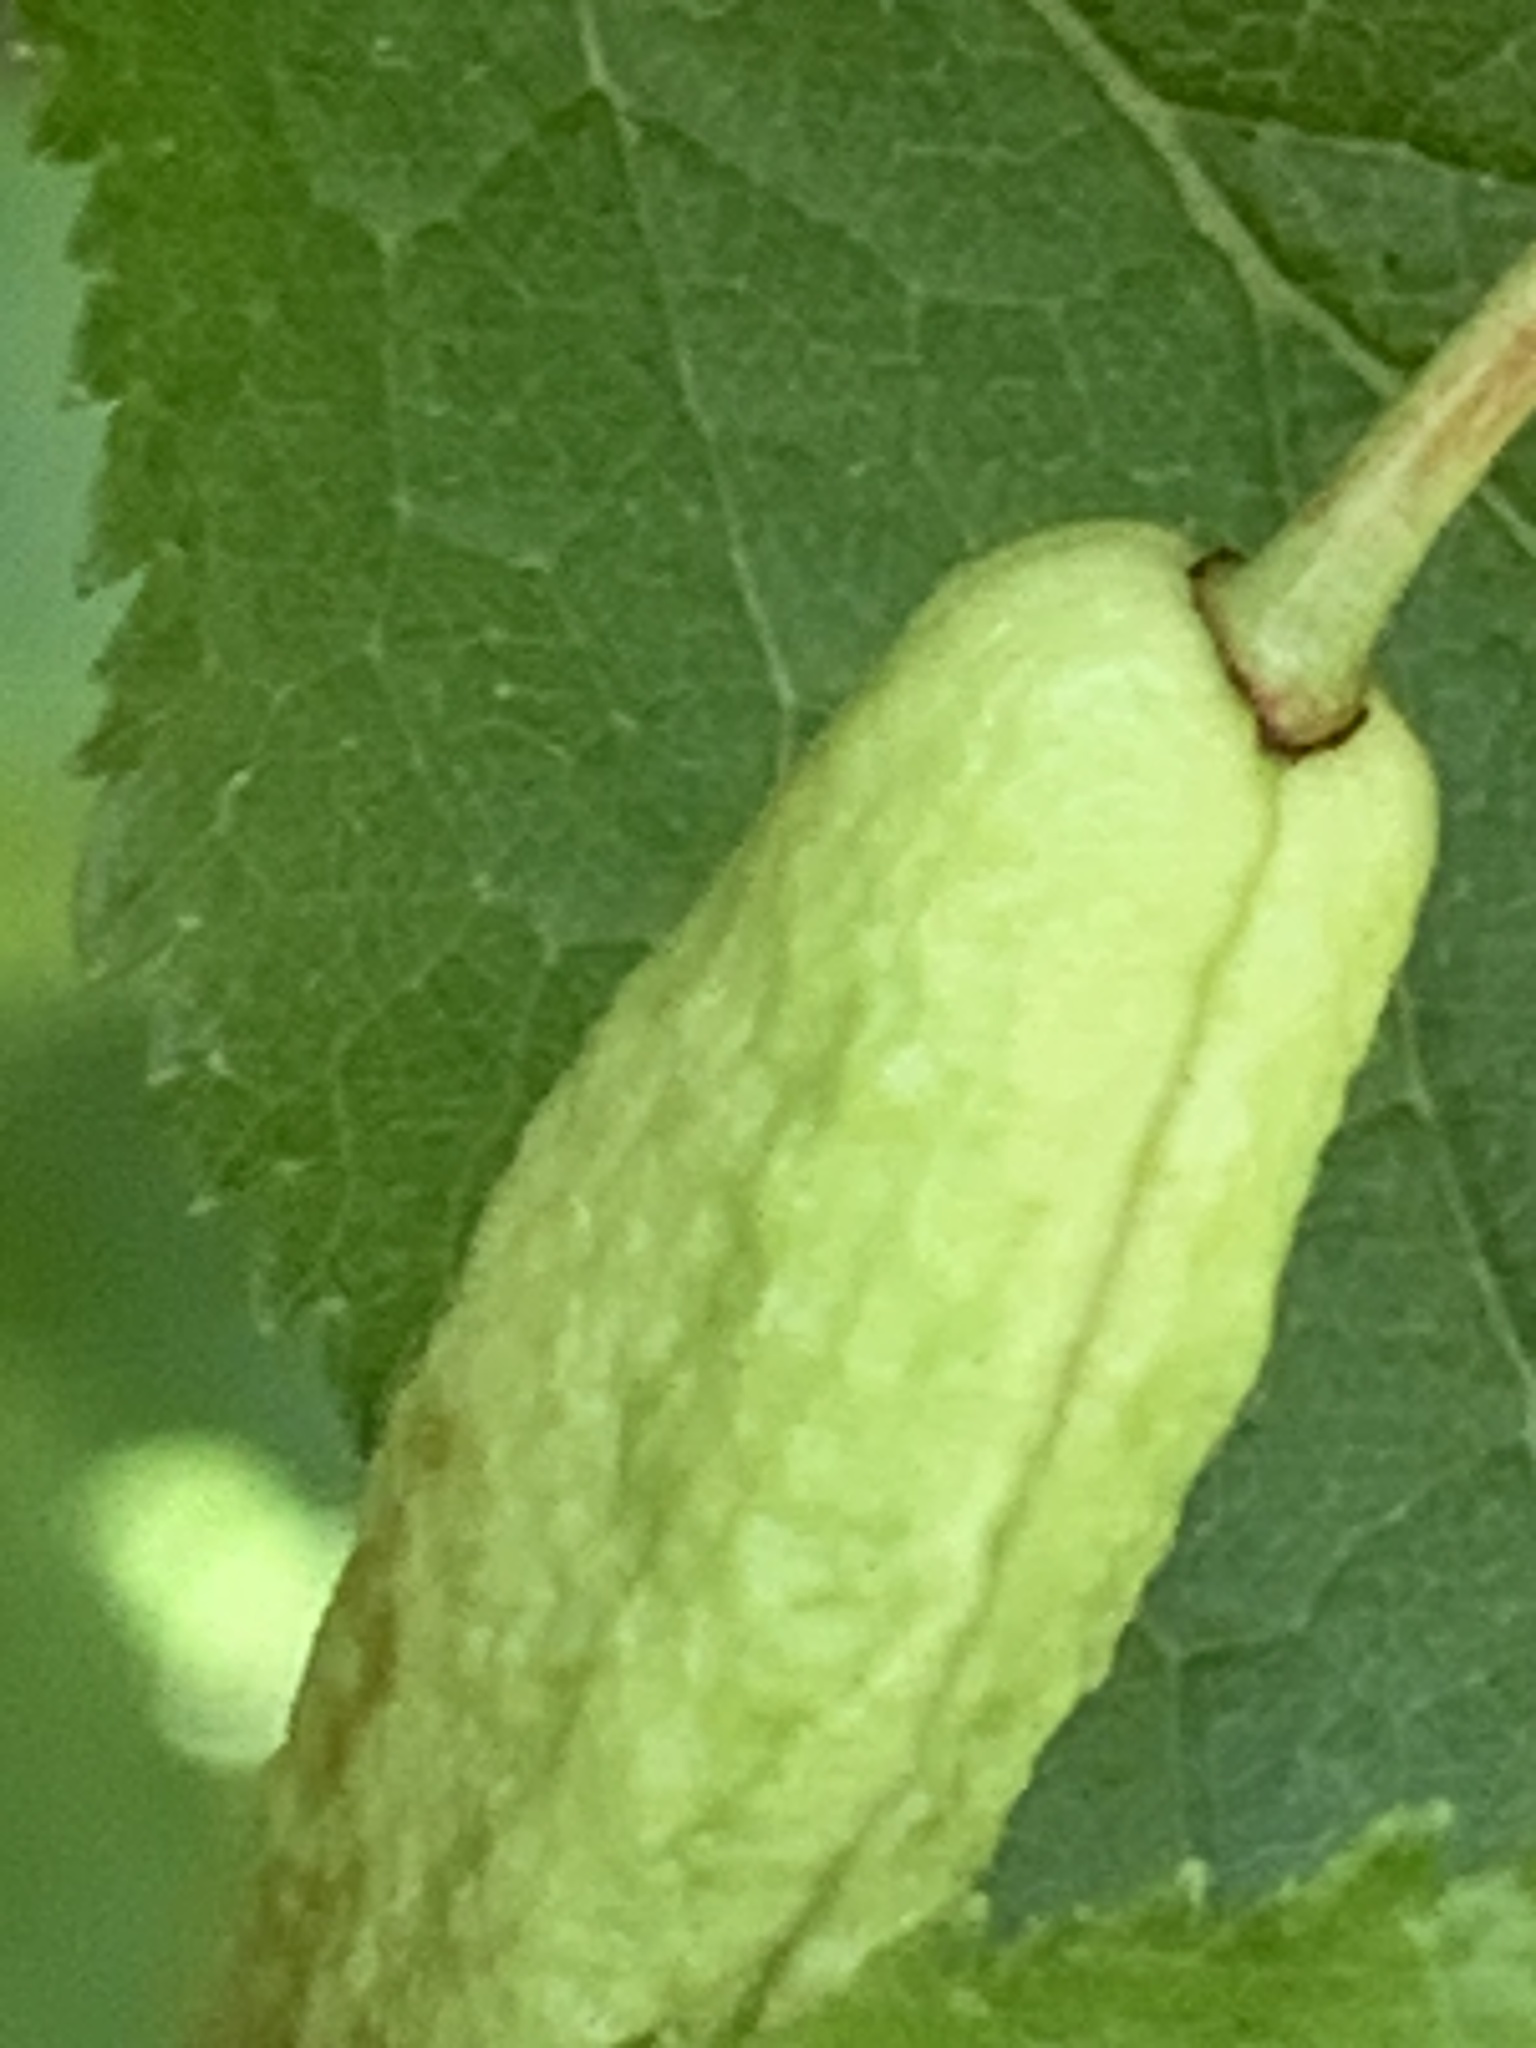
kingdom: Fungi
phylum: Ascomycota
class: Taphrinomycetes
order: Taphrinales
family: Taphrinaceae
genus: Taphrina
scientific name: Taphrina pruni
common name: Pocket plum
